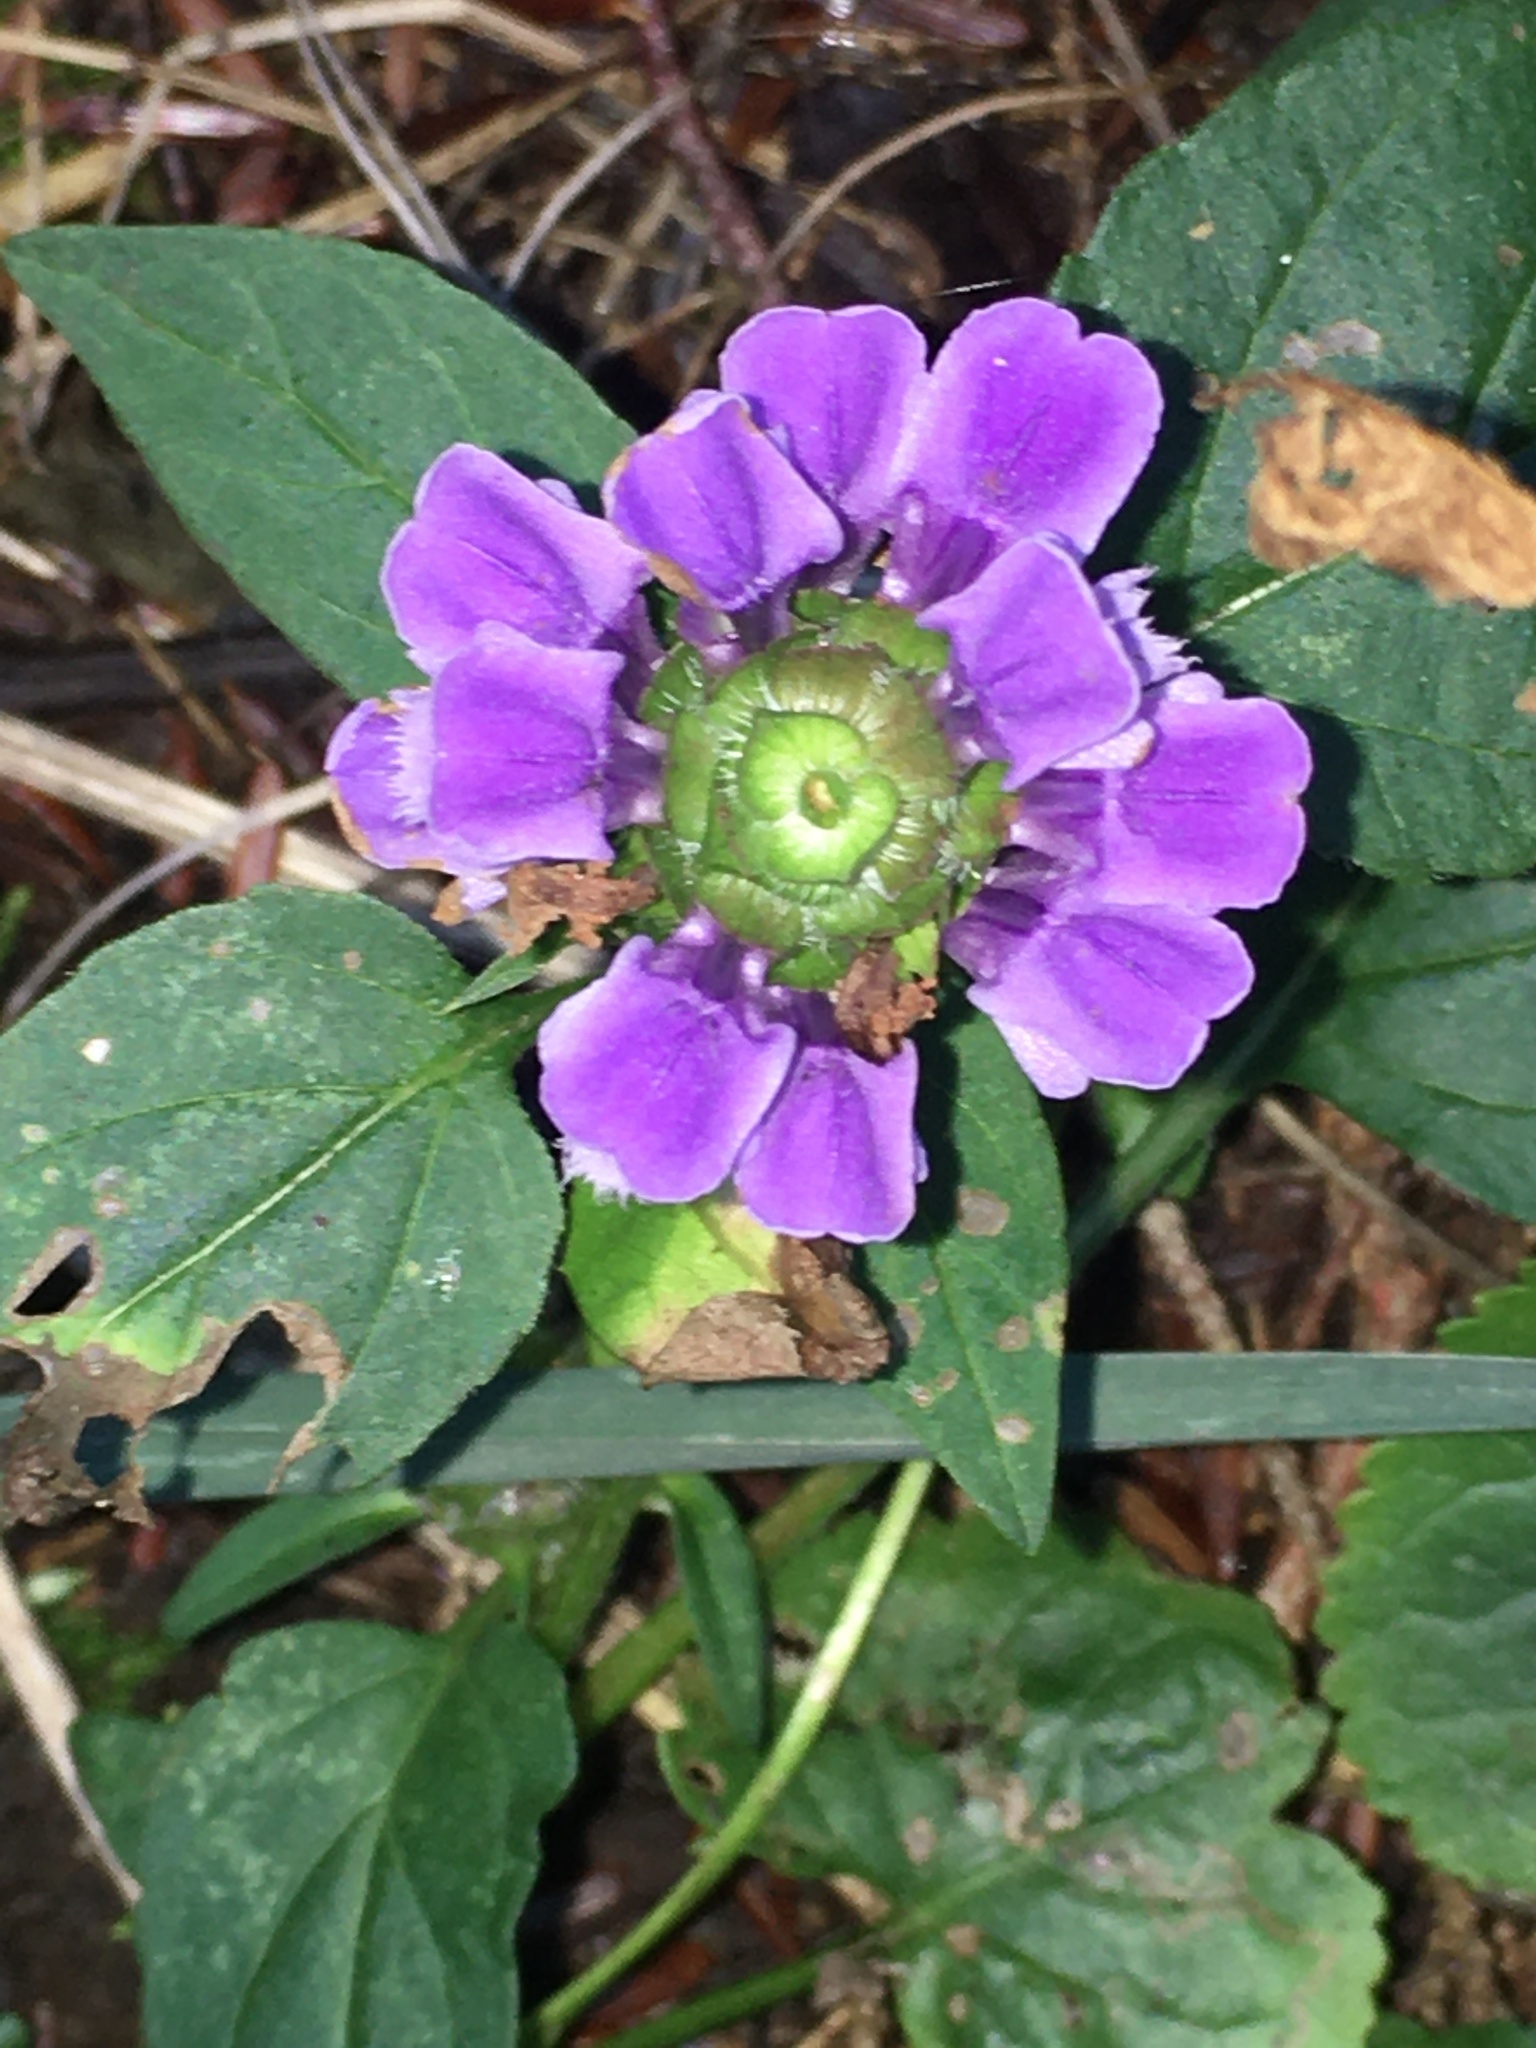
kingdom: Plantae
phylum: Tracheophyta
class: Magnoliopsida
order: Lamiales
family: Lamiaceae
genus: Prunella
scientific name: Prunella vulgaris
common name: Heal-all
